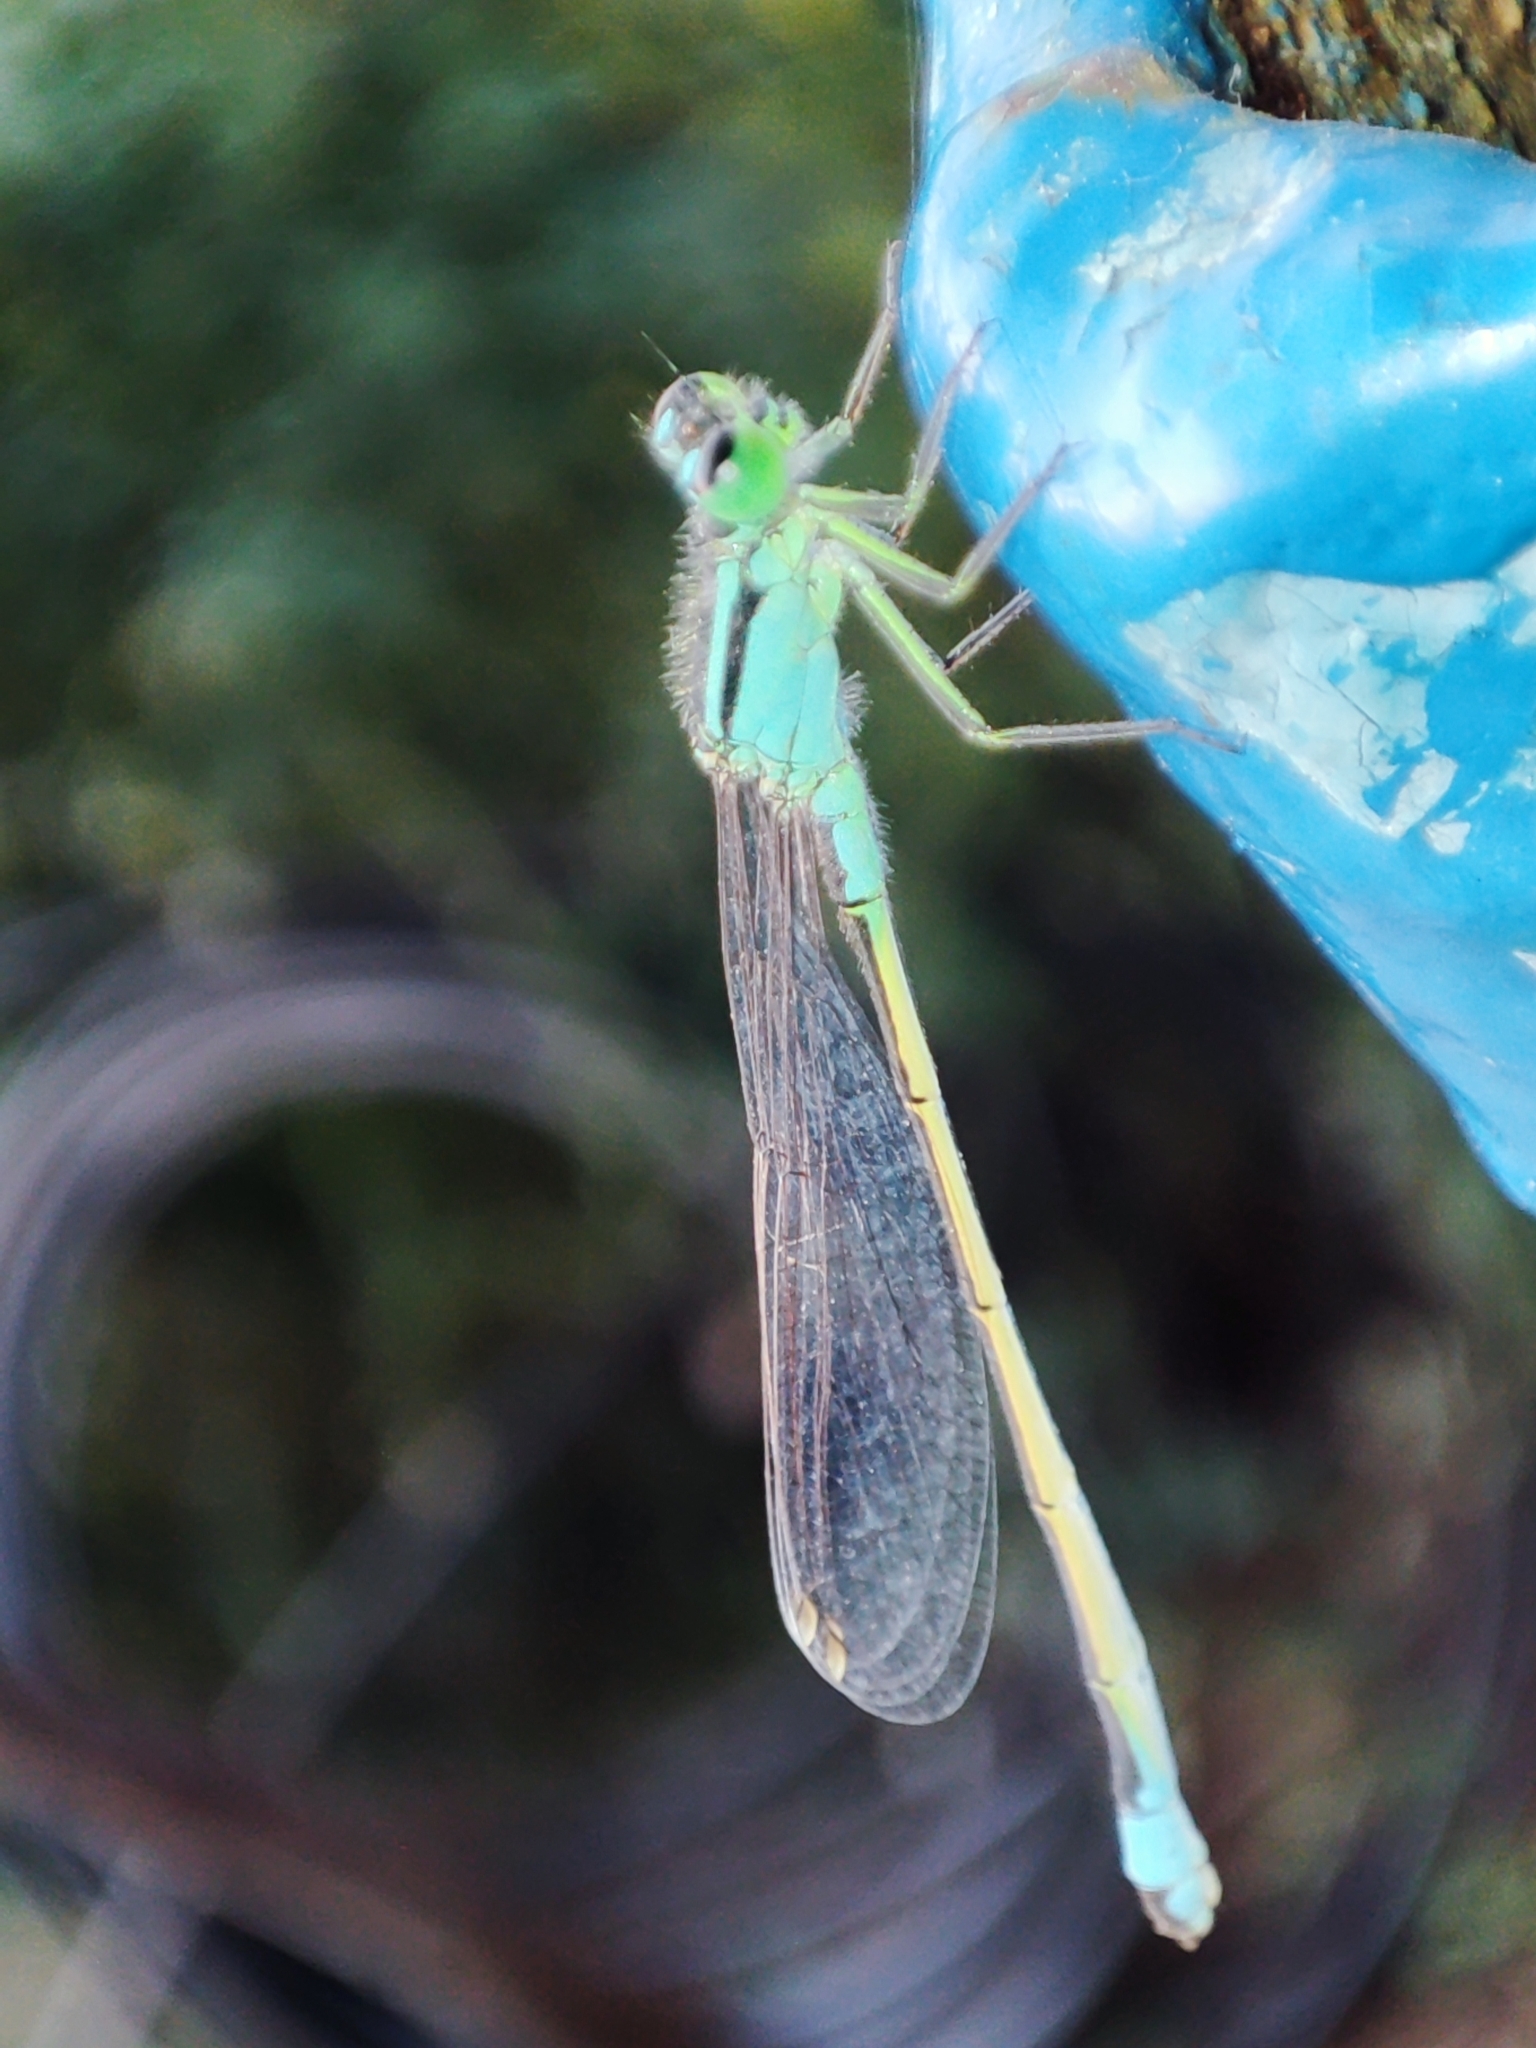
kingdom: Animalia
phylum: Arthropoda
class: Insecta
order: Odonata
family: Coenagrionidae
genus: Ischnura
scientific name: Ischnura elegans
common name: Blue-tailed damselfly
